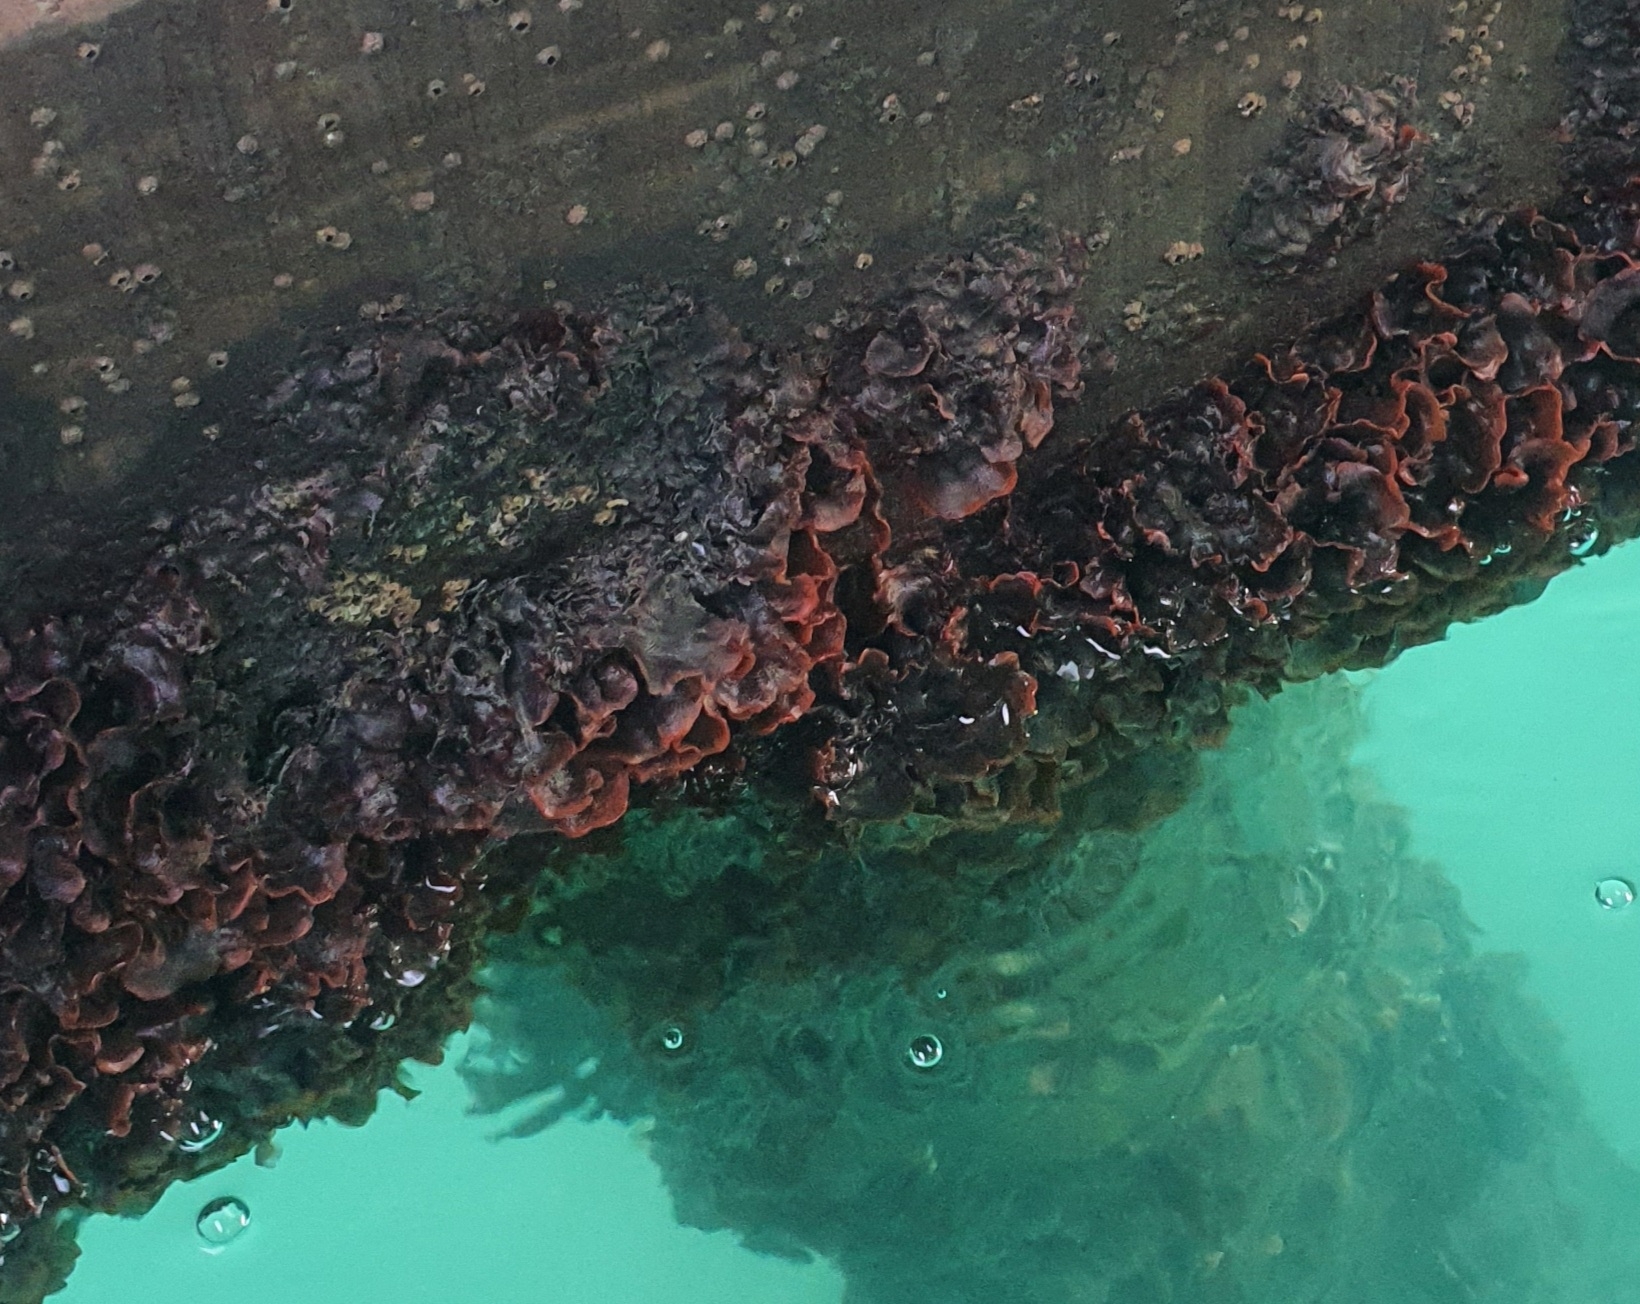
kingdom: Animalia
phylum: Bryozoa
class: Gymnolaemata
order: Cheilostomatida
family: Watersiporidae
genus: Watersipora
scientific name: Watersipora subatra
